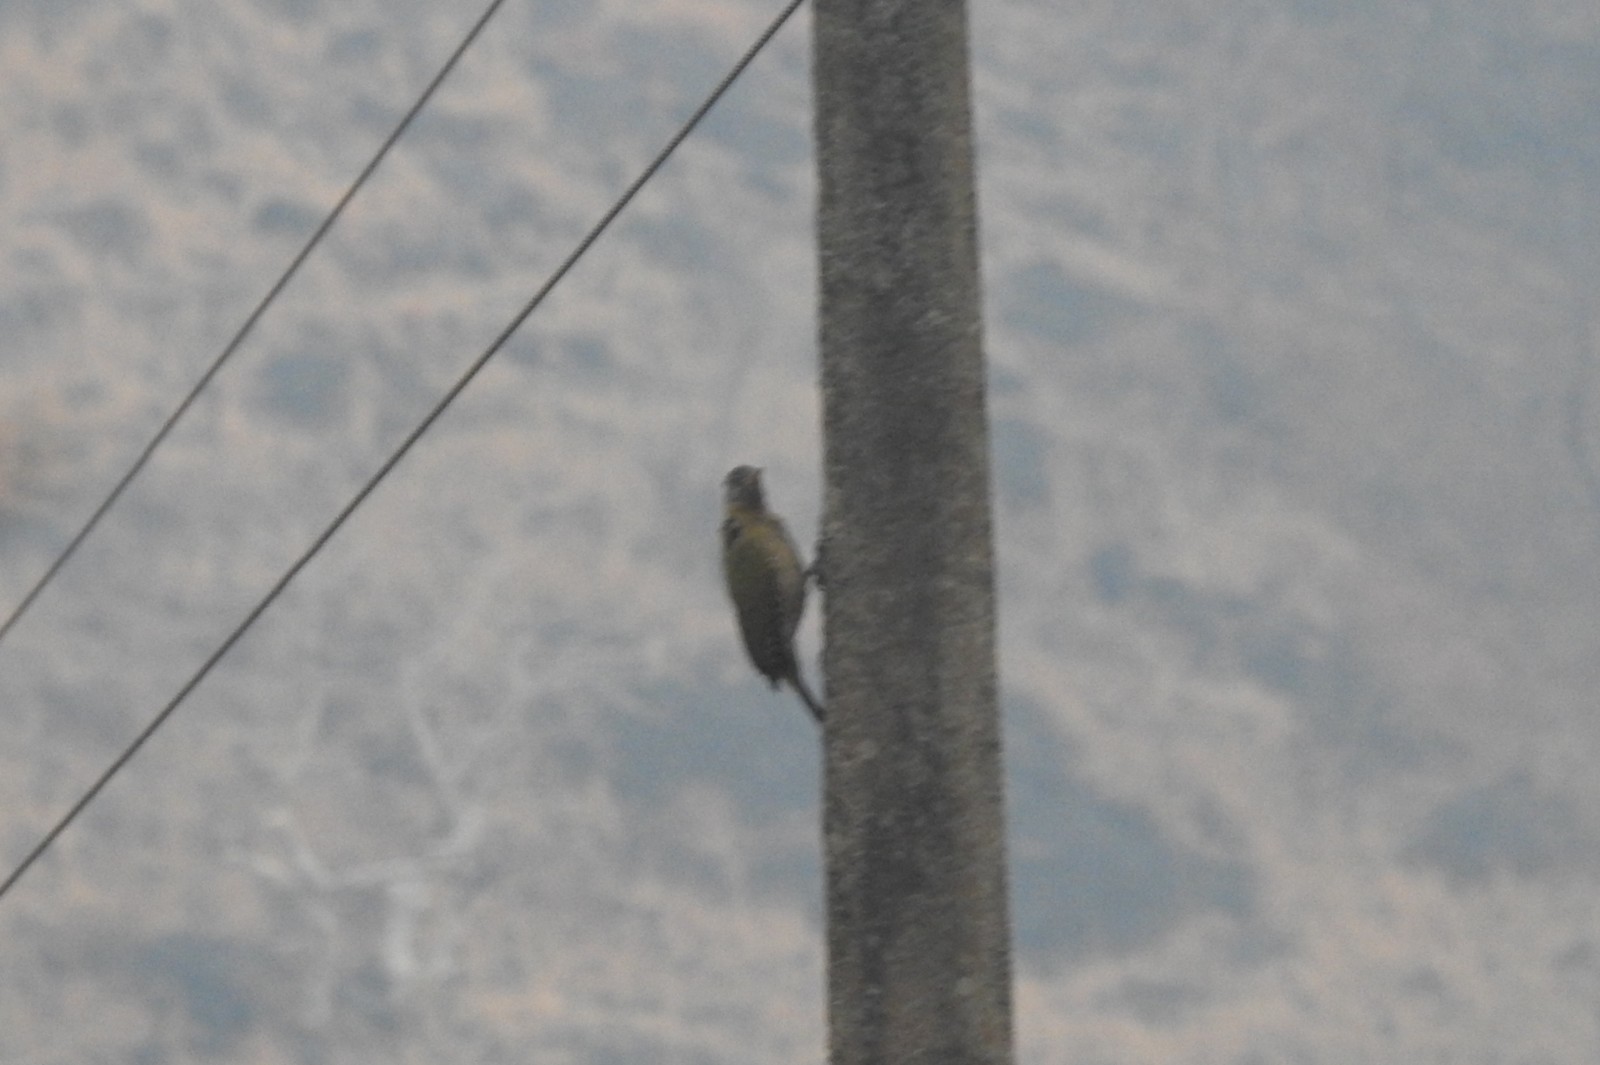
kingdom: Animalia
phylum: Chordata
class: Aves
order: Piciformes
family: Picidae
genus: Picus
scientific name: Picus xanthopygaeus
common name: Streak-throated woodpecker
